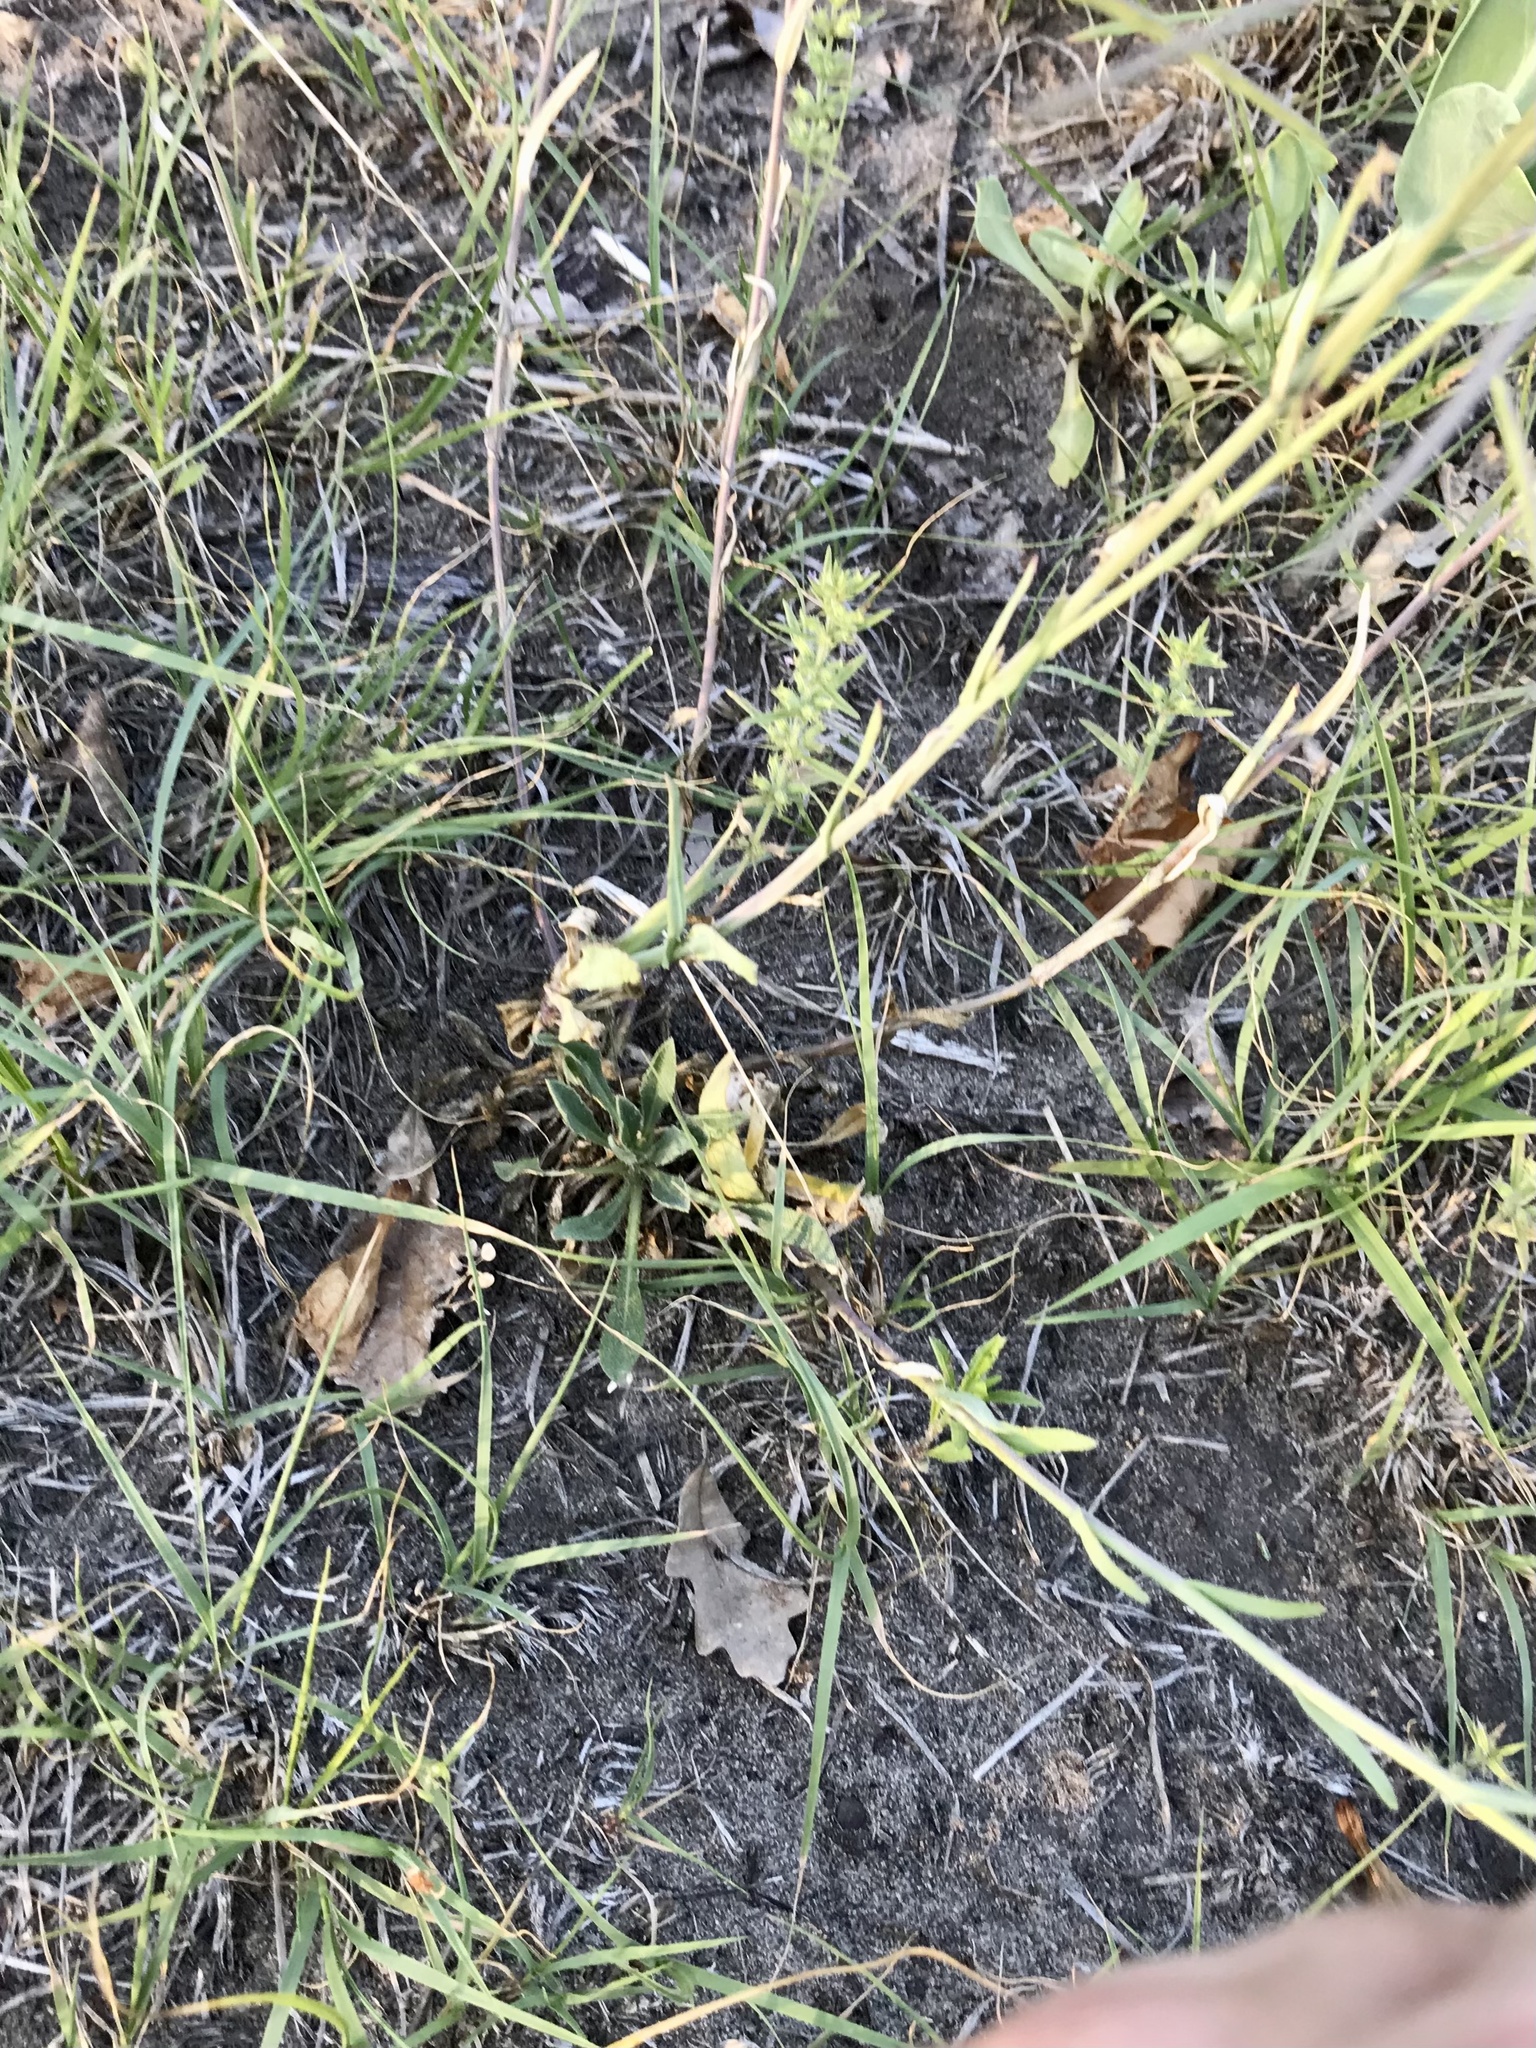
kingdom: Plantae
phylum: Tracheophyta
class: Magnoliopsida
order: Brassicales
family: Brassicaceae
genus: Boechera
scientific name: Boechera grahamii
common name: Graham's rockcress
